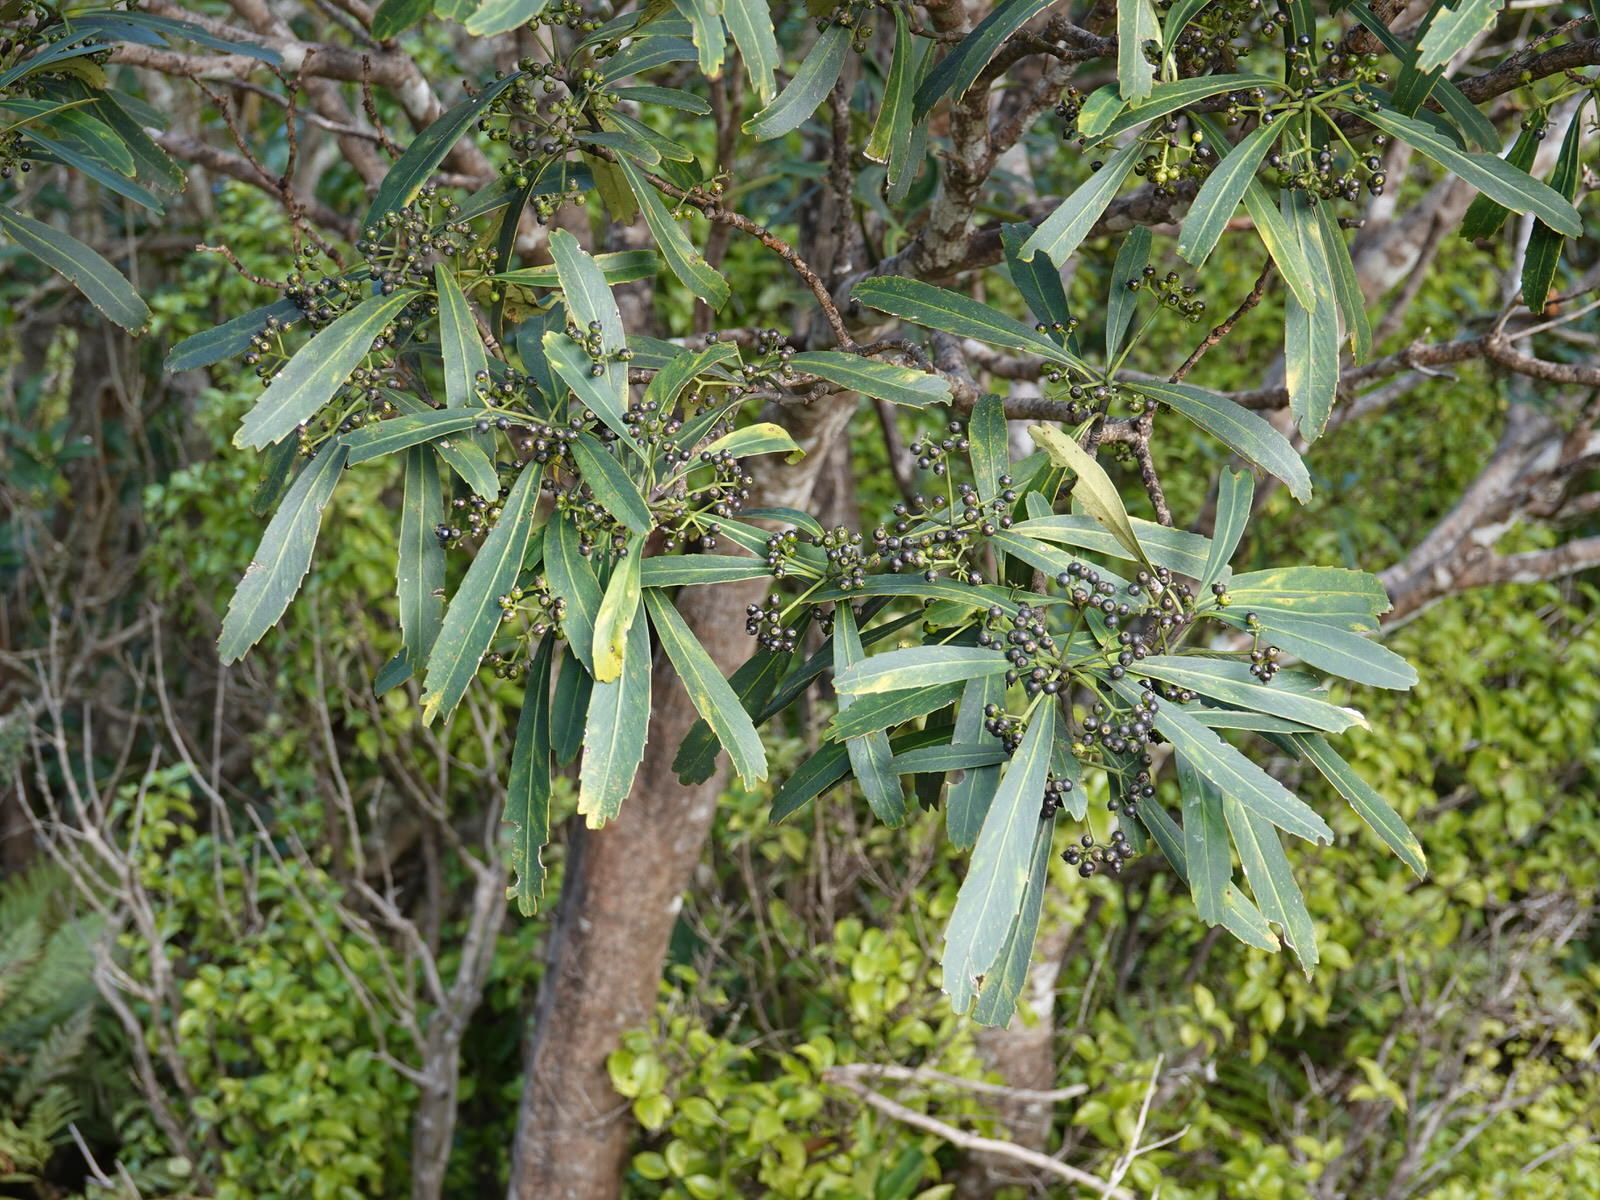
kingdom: Plantae
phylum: Tracheophyta
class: Magnoliopsida
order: Apiales
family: Araliaceae
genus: Pseudopanax
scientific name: Pseudopanax crassifolius
